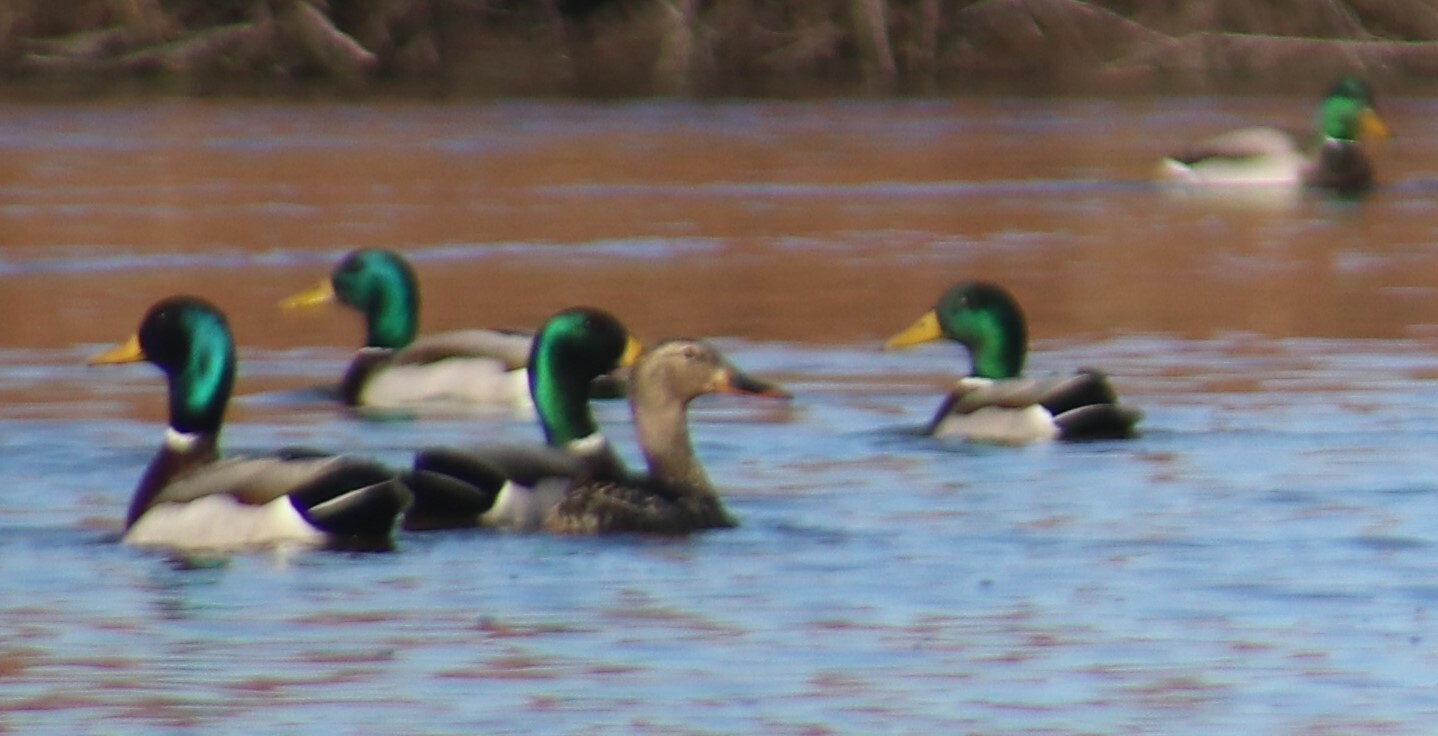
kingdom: Animalia
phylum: Chordata
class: Aves
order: Anseriformes
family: Anatidae
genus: Anas
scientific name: Anas platyrhynchos
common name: Mallard
